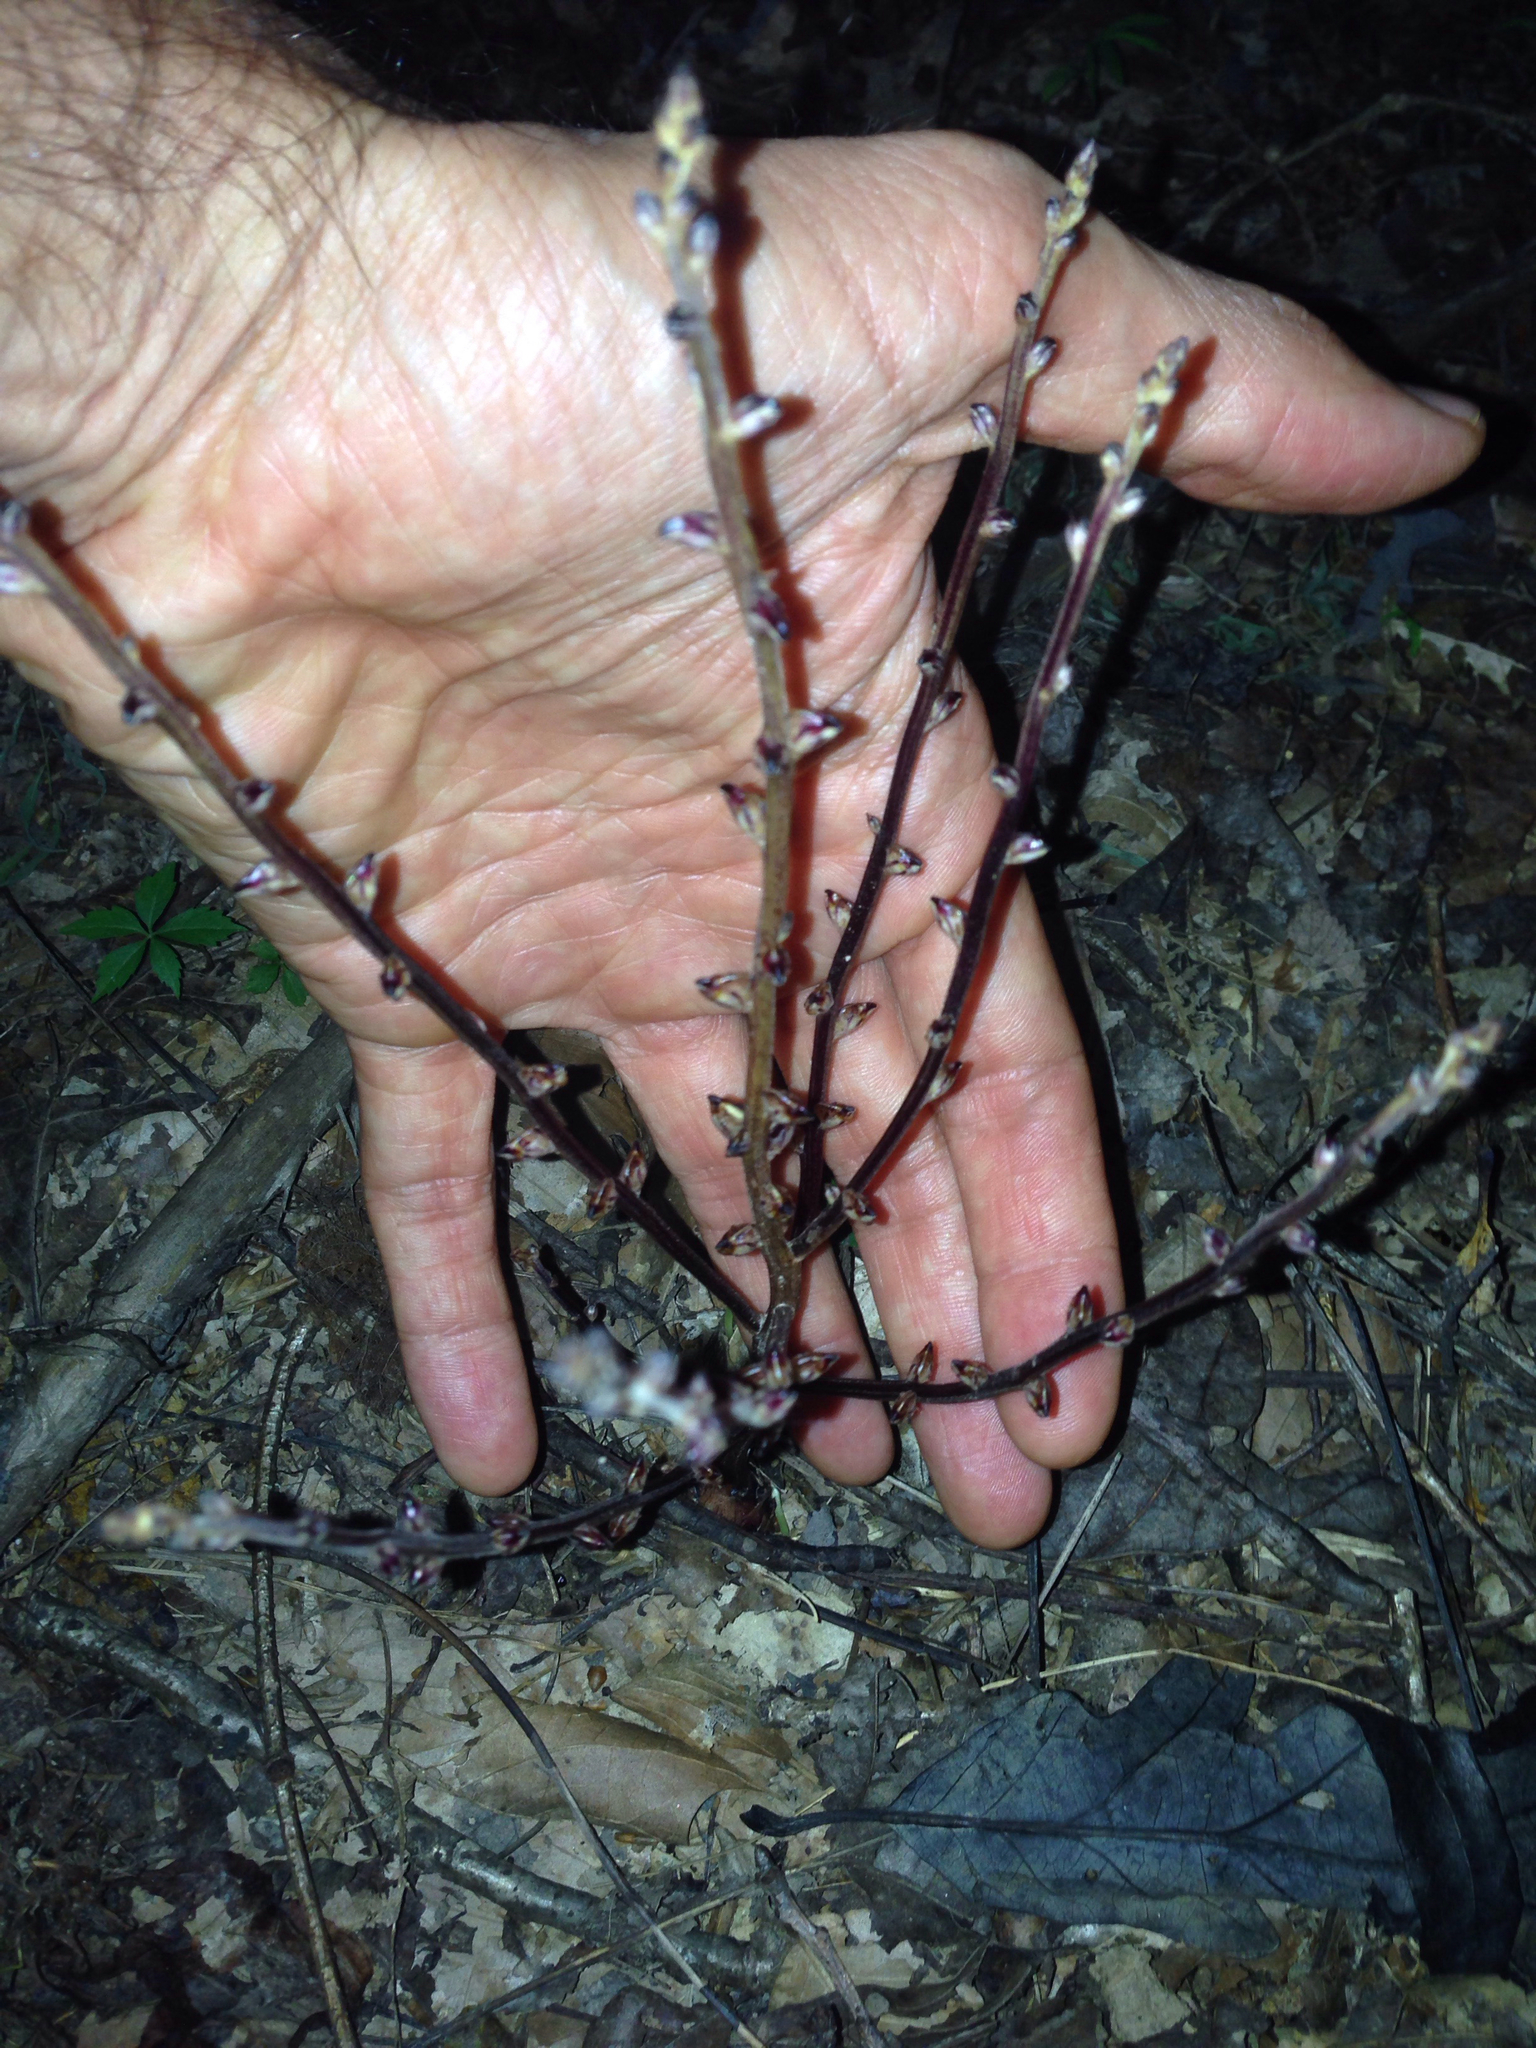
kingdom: Plantae
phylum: Tracheophyta
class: Magnoliopsida
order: Lamiales
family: Orobanchaceae
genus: Epifagus
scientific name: Epifagus virginiana
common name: Beechdrops
